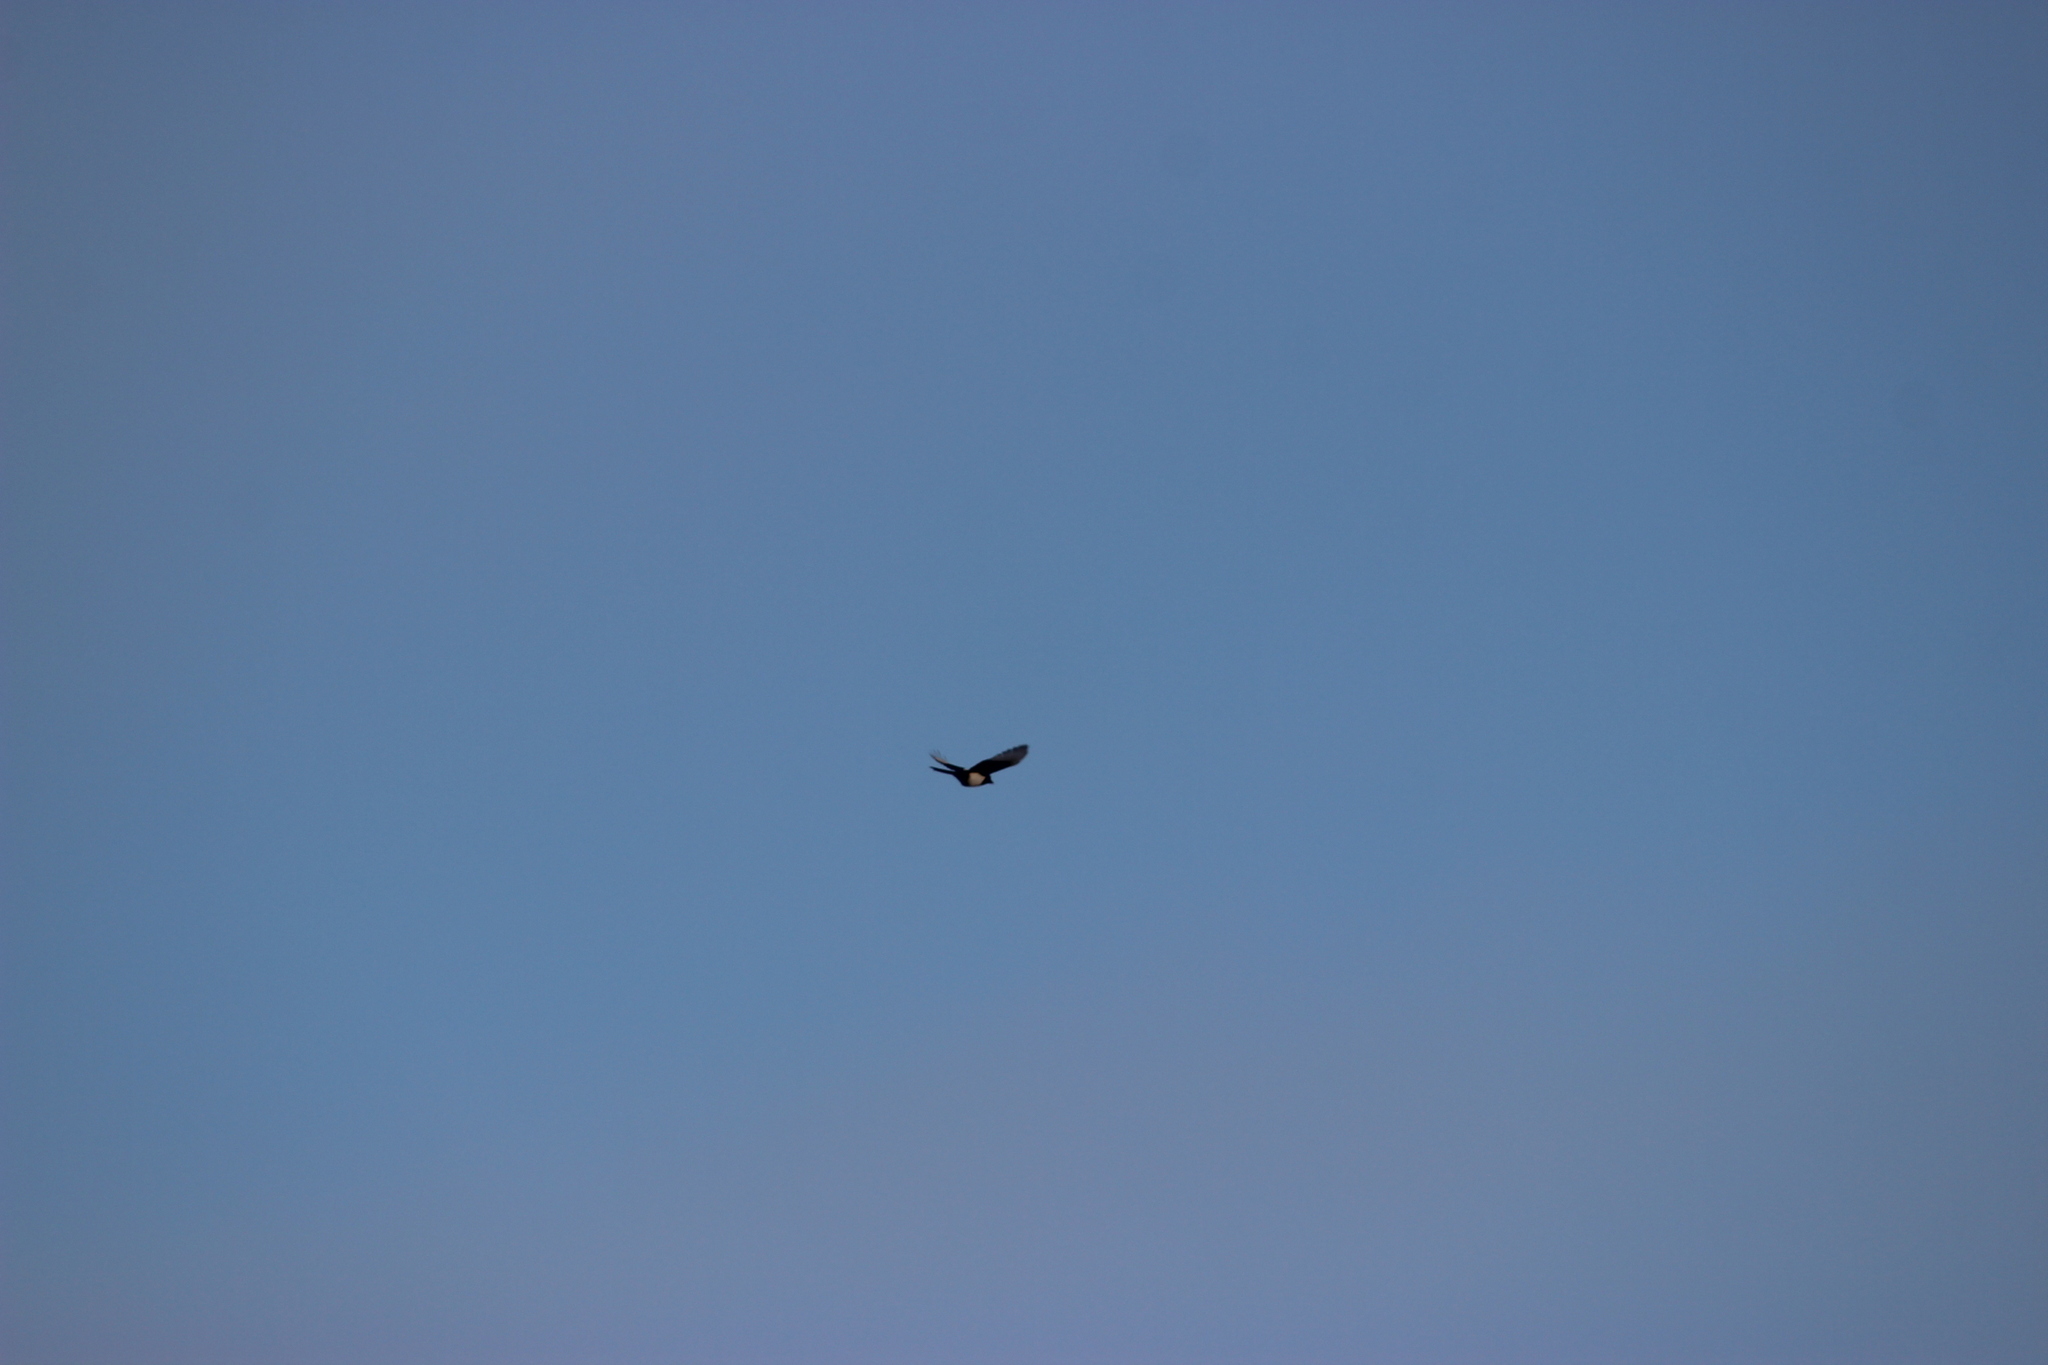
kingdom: Animalia
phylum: Chordata
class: Aves
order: Passeriformes
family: Corvidae
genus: Pica
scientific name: Pica pica
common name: Eurasian magpie
